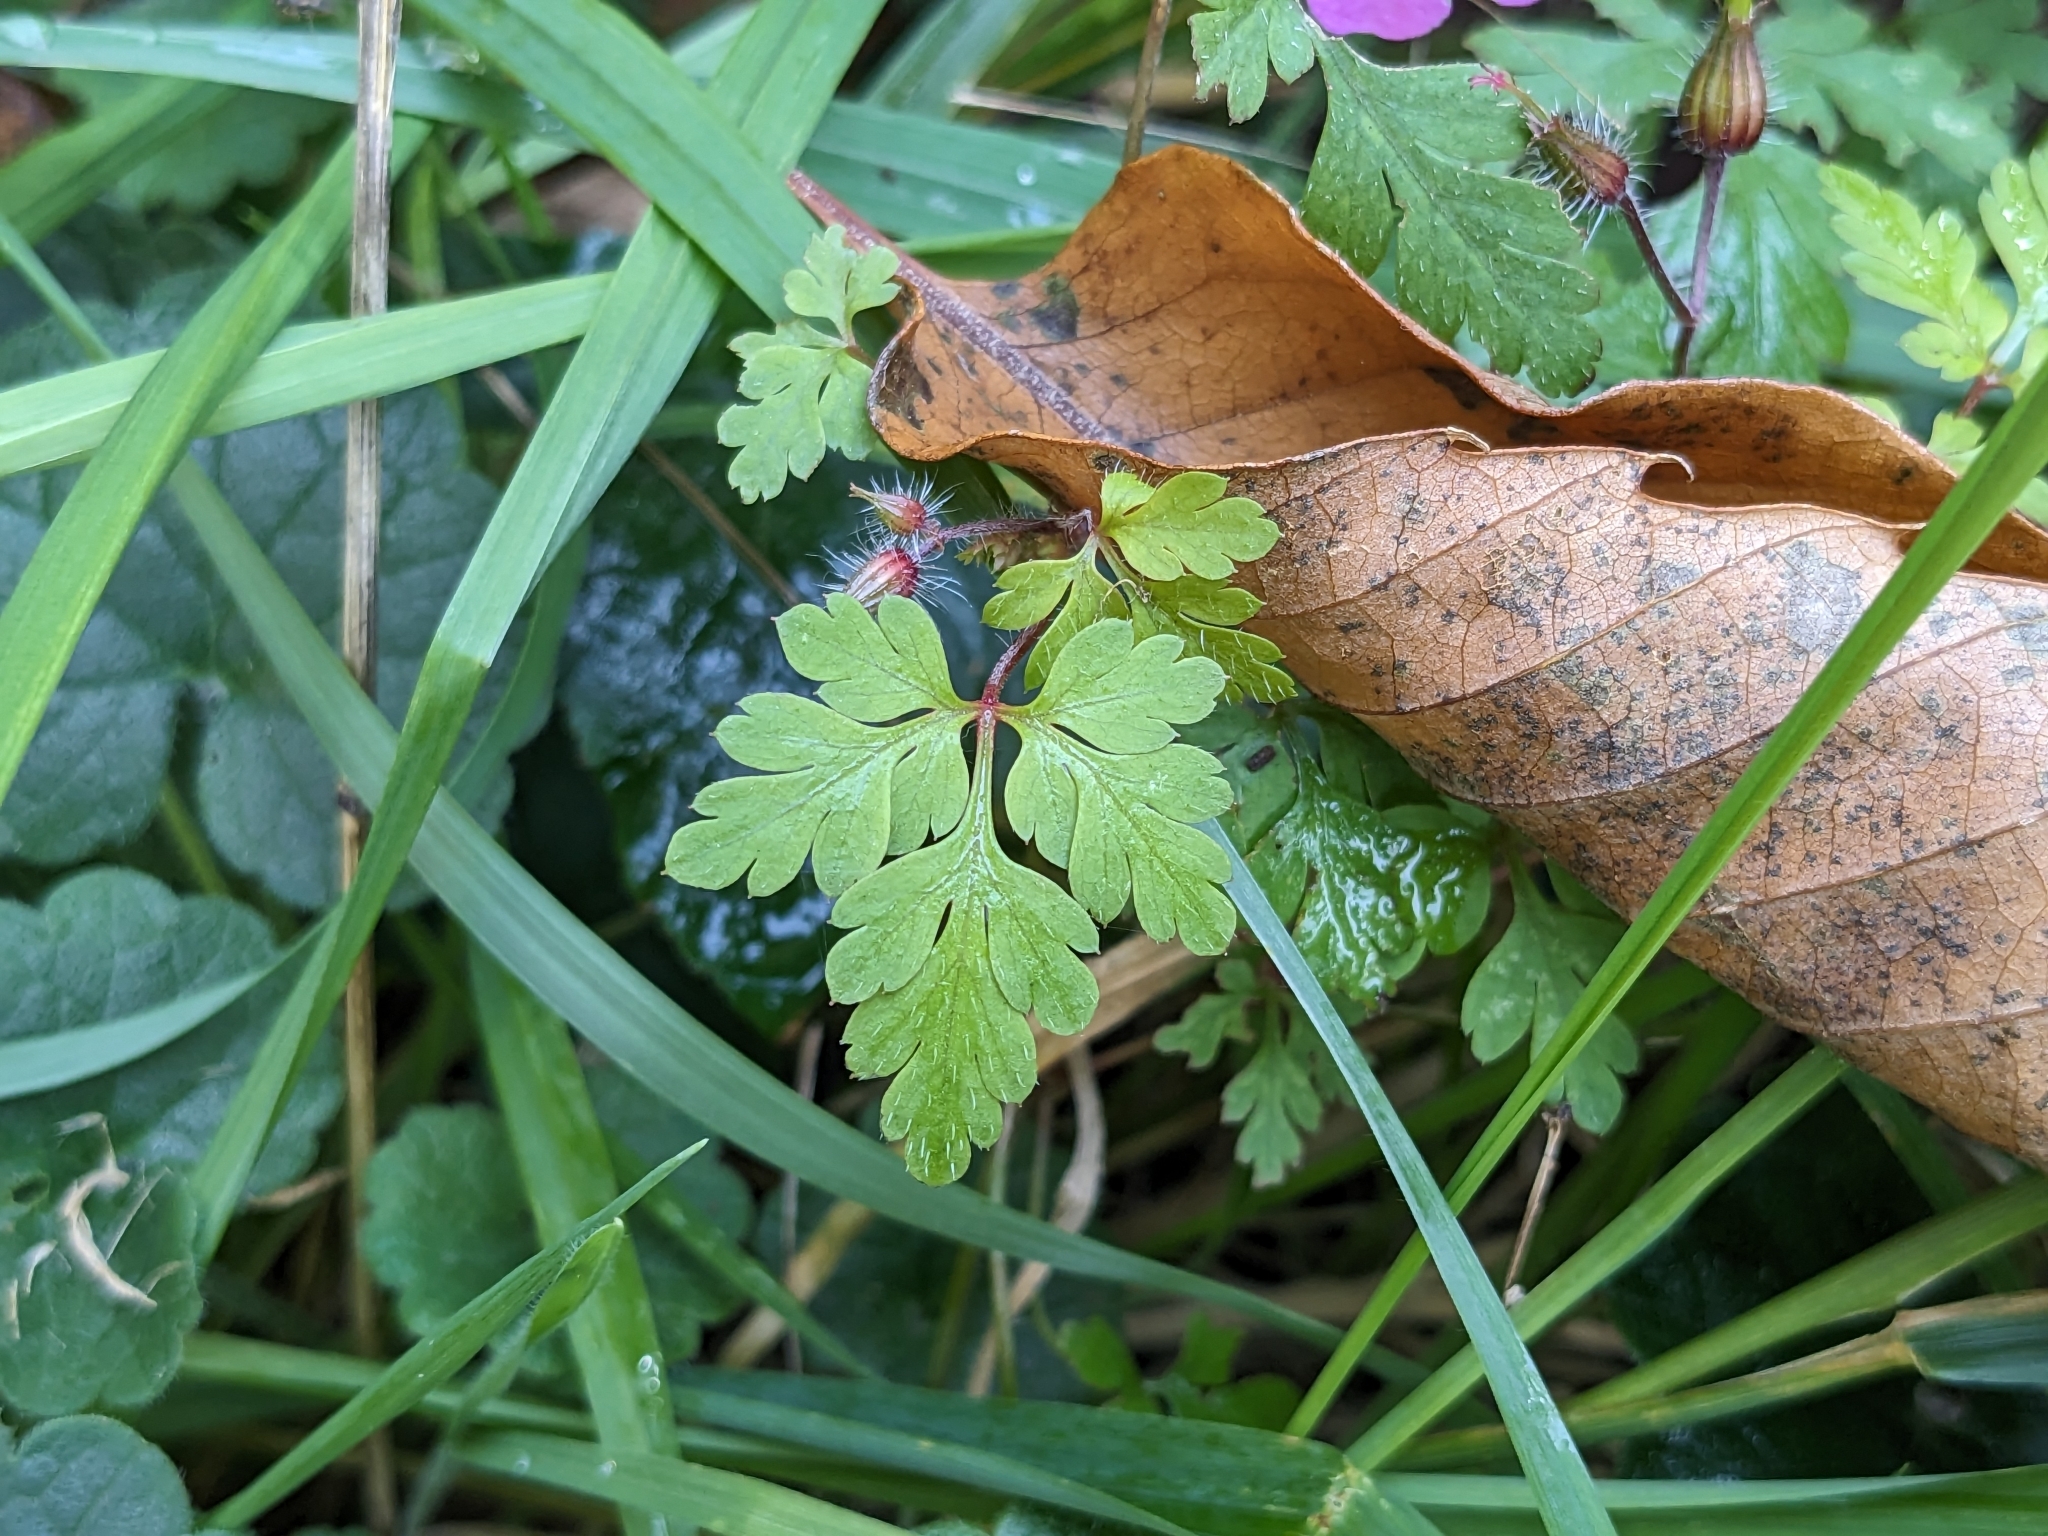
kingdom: Plantae
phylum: Tracheophyta
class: Magnoliopsida
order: Geraniales
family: Geraniaceae
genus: Geranium
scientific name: Geranium robertianum
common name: Herb-robert
